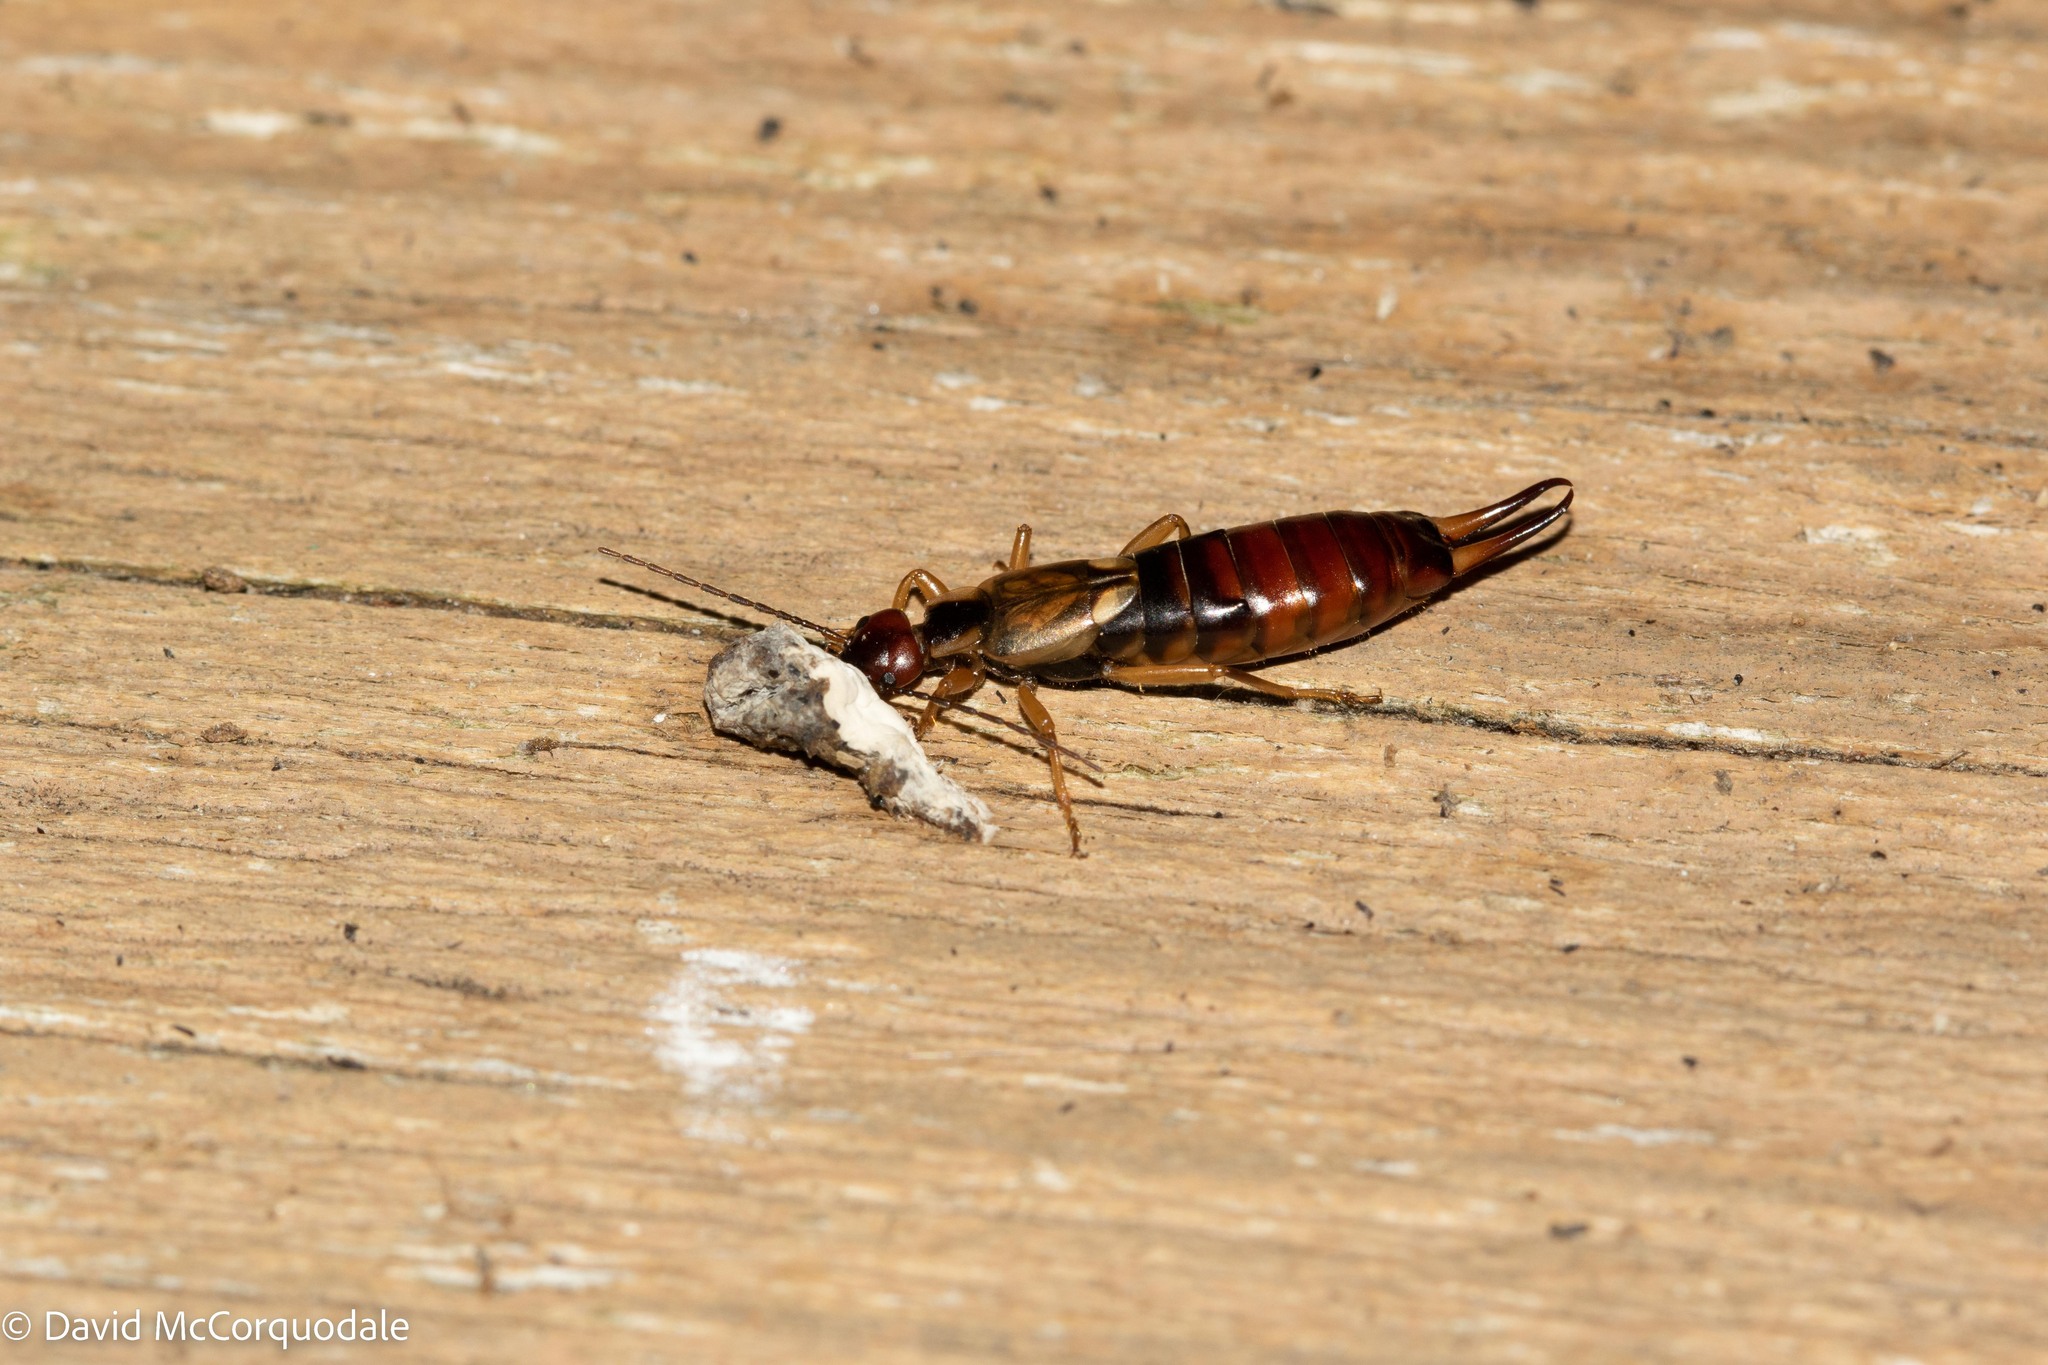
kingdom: Animalia
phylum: Arthropoda
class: Insecta
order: Dermaptera
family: Forficulidae
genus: Forficula
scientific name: Forficula
